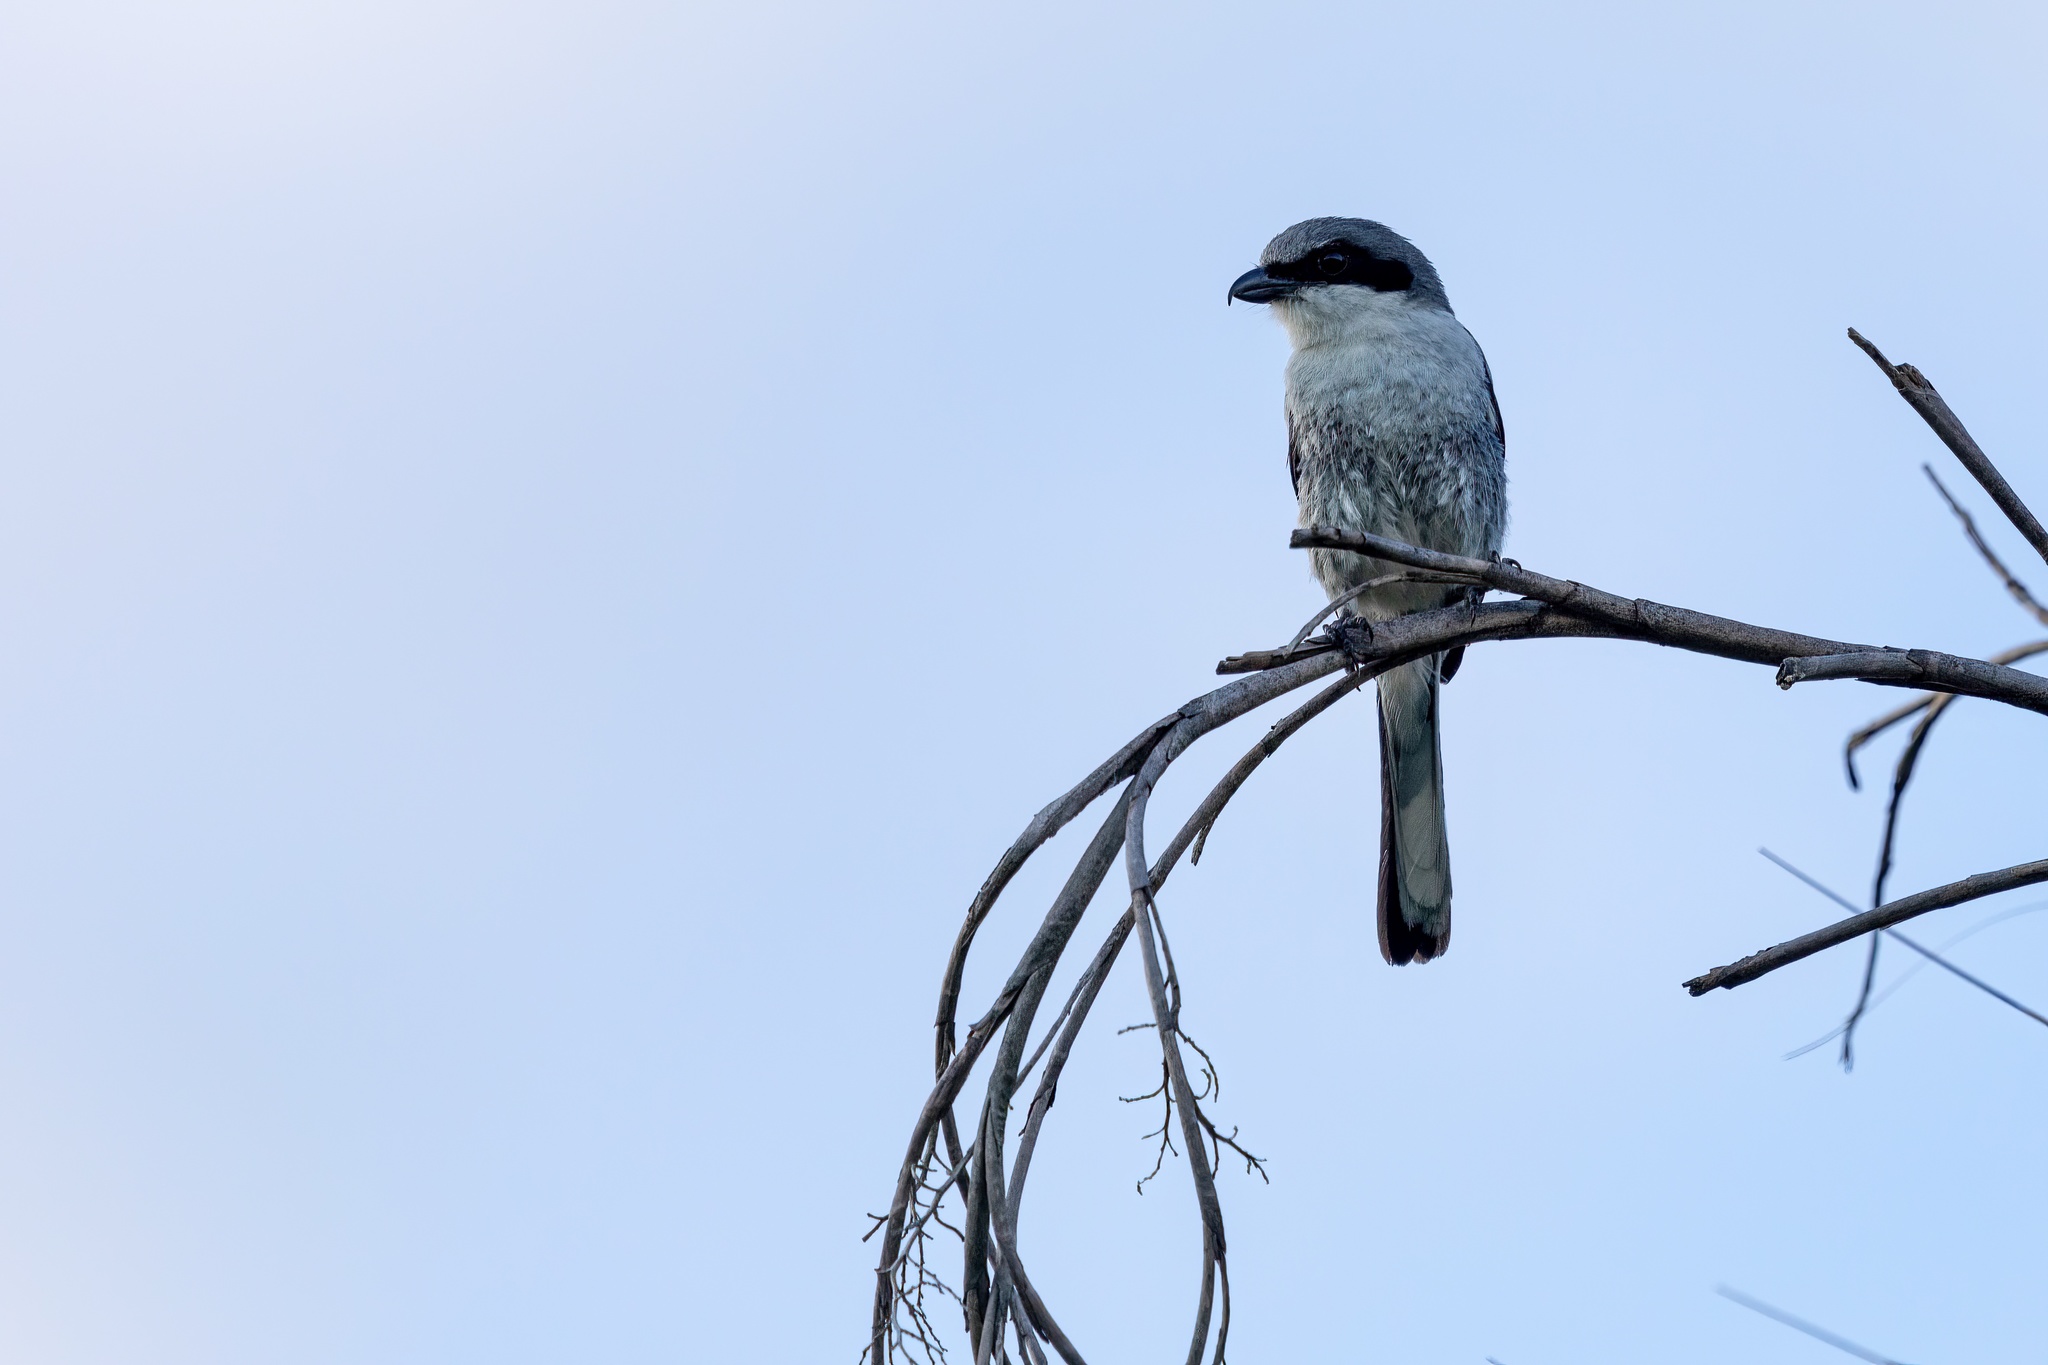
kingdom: Animalia
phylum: Chordata
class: Aves
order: Passeriformes
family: Laniidae
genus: Lanius
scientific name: Lanius ludovicianus
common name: Loggerhead shrike
